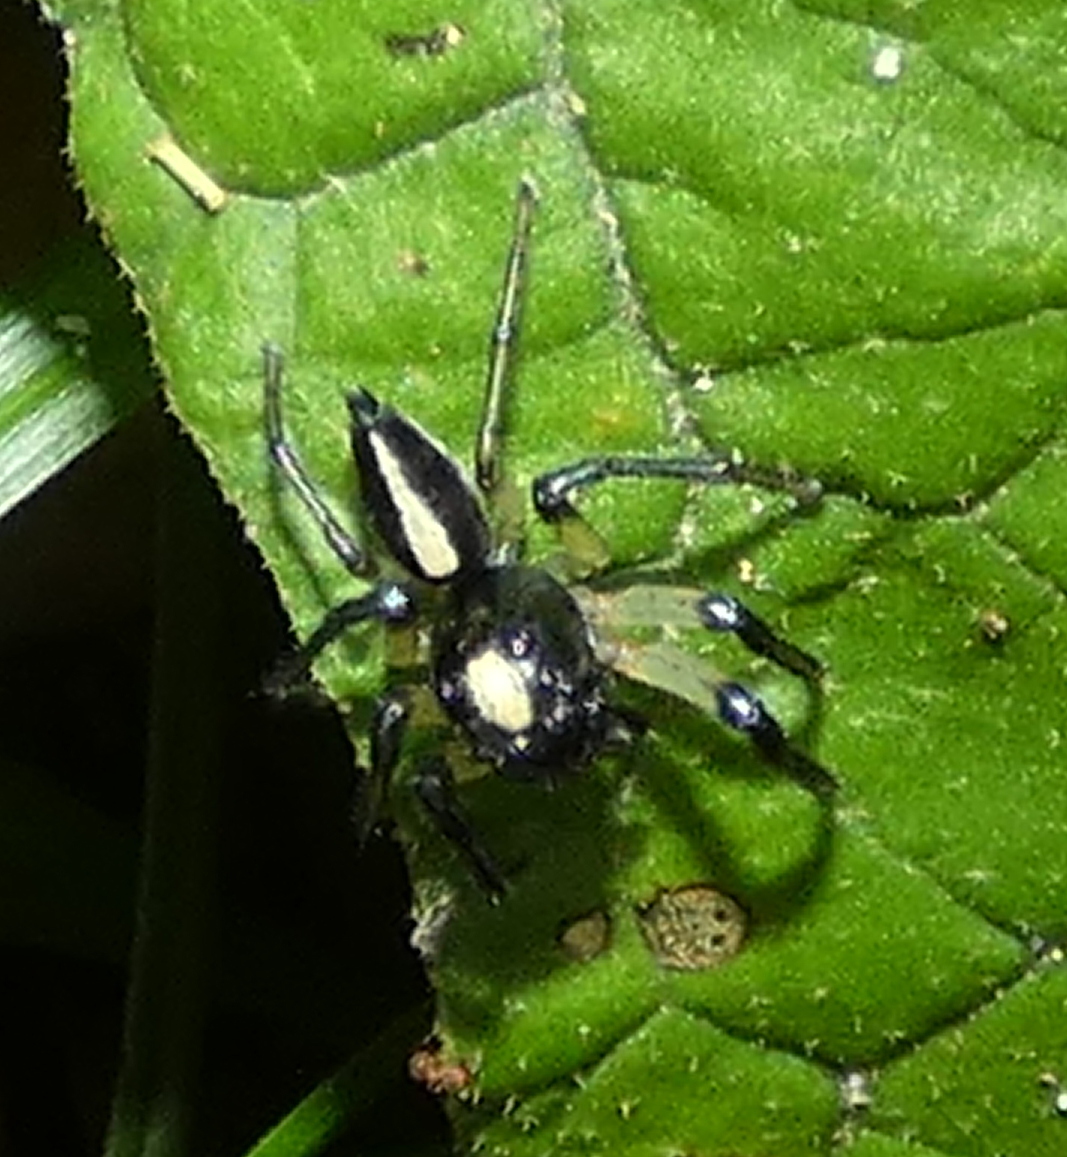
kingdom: Animalia
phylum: Arthropoda
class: Arachnida
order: Araneae
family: Salticidae
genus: Amycus
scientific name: Amycus flavicomis
